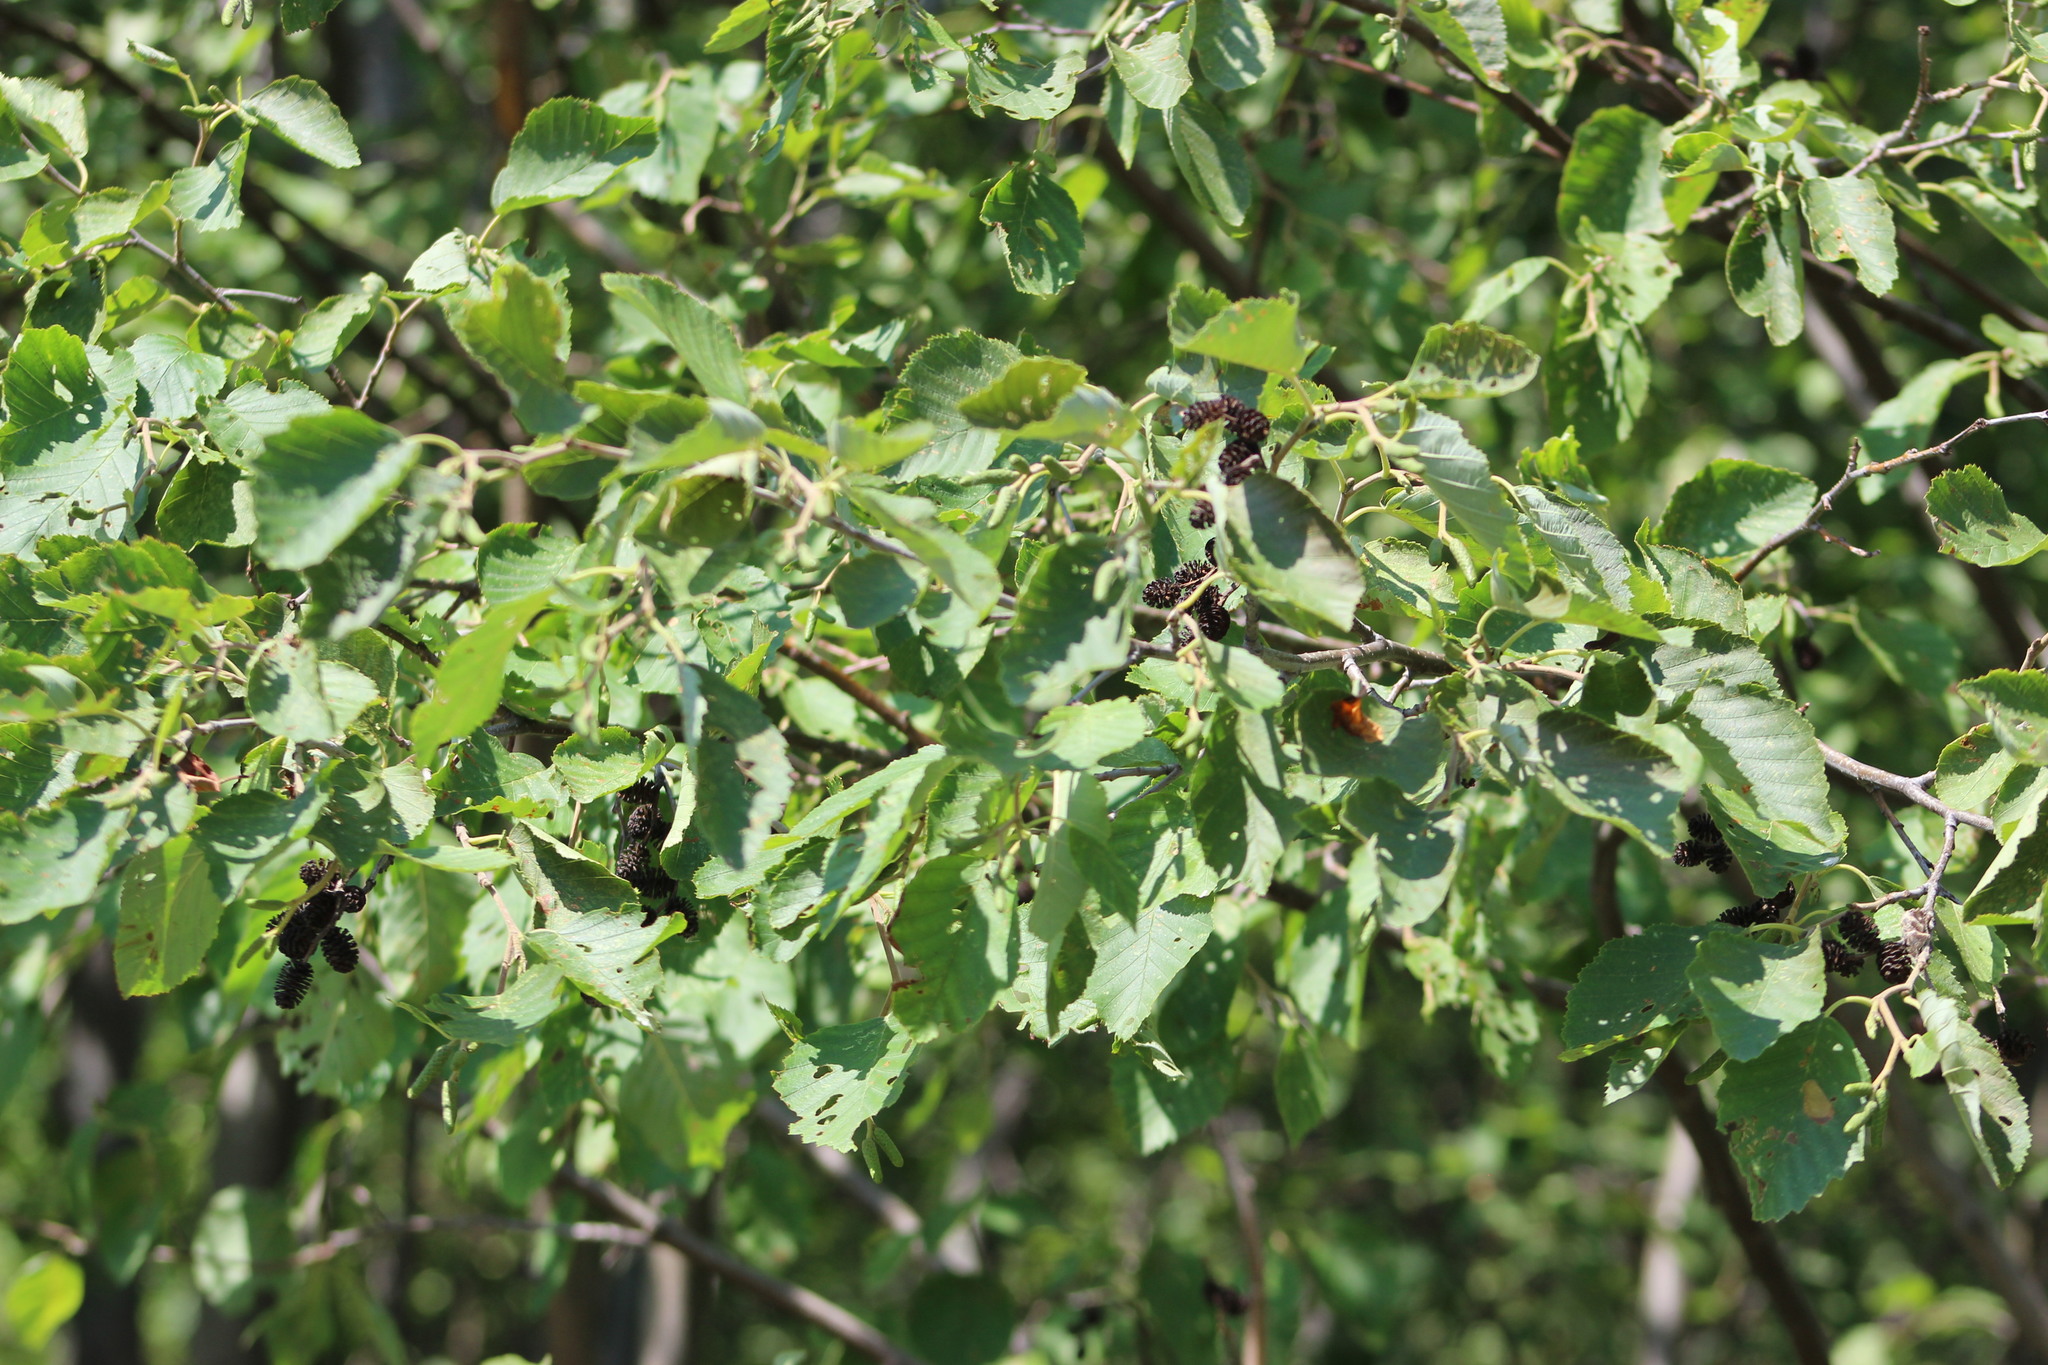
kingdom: Plantae
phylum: Tracheophyta
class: Magnoliopsida
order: Fagales
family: Betulaceae
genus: Alnus
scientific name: Alnus incana
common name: Grey alder
